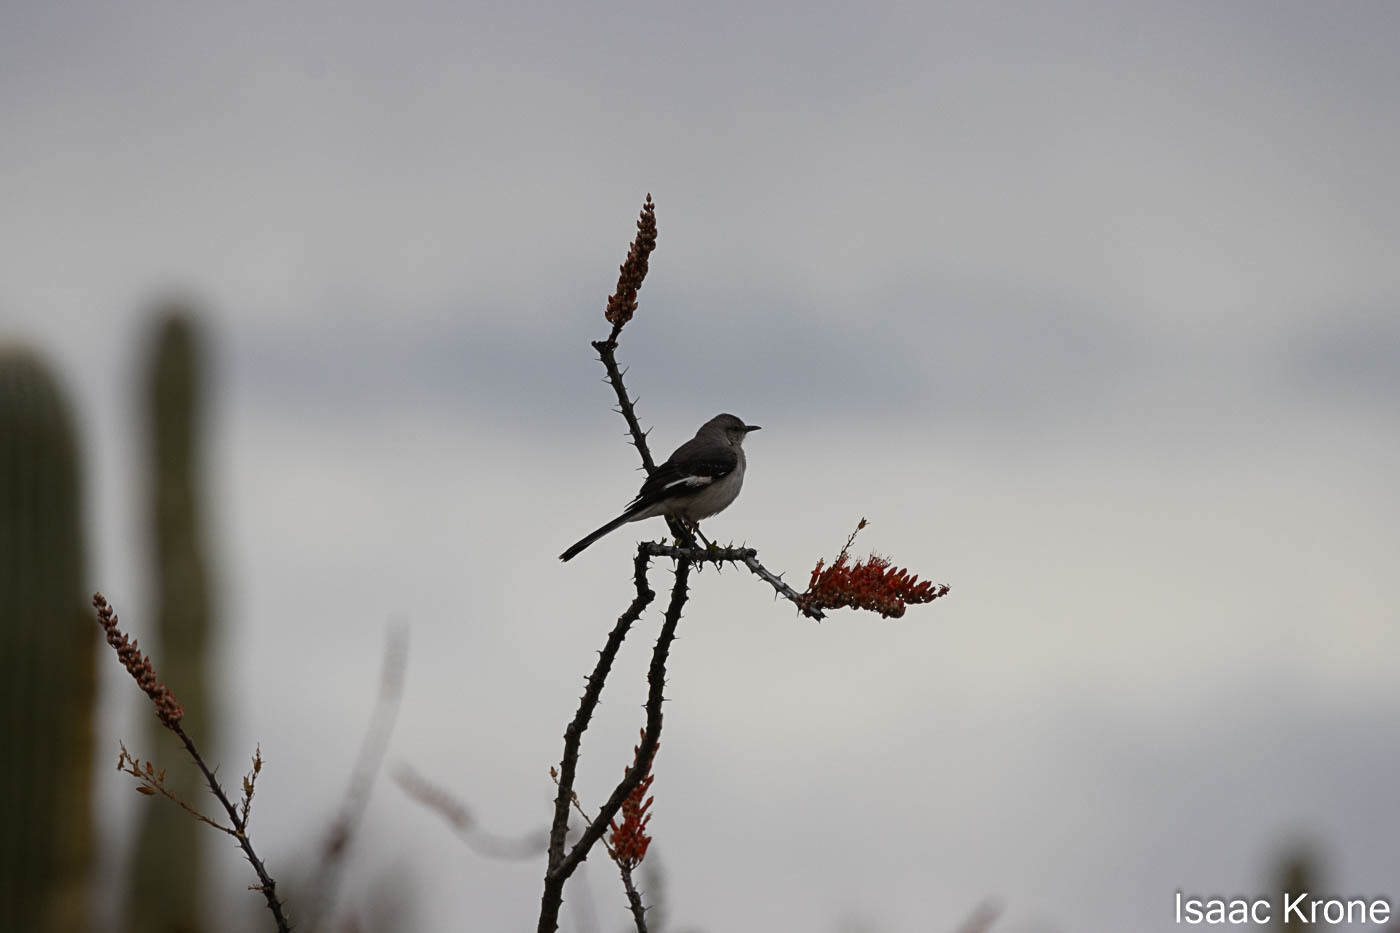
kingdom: Animalia
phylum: Chordata
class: Aves
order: Passeriformes
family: Mimidae
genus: Mimus
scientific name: Mimus polyglottos
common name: Northern mockingbird
